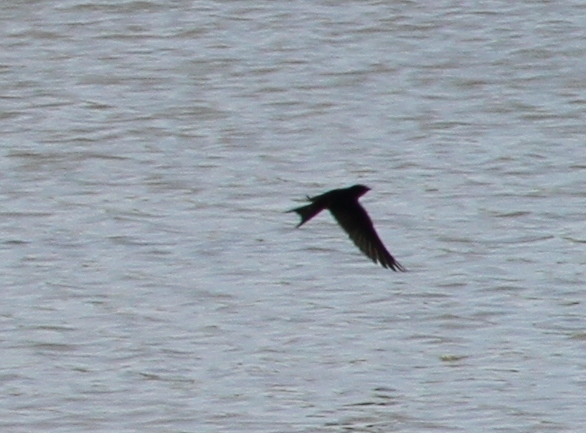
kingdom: Animalia
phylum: Chordata
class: Aves
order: Passeriformes
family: Hirundinidae
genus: Hirundo
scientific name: Hirundo rustica
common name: Barn swallow
